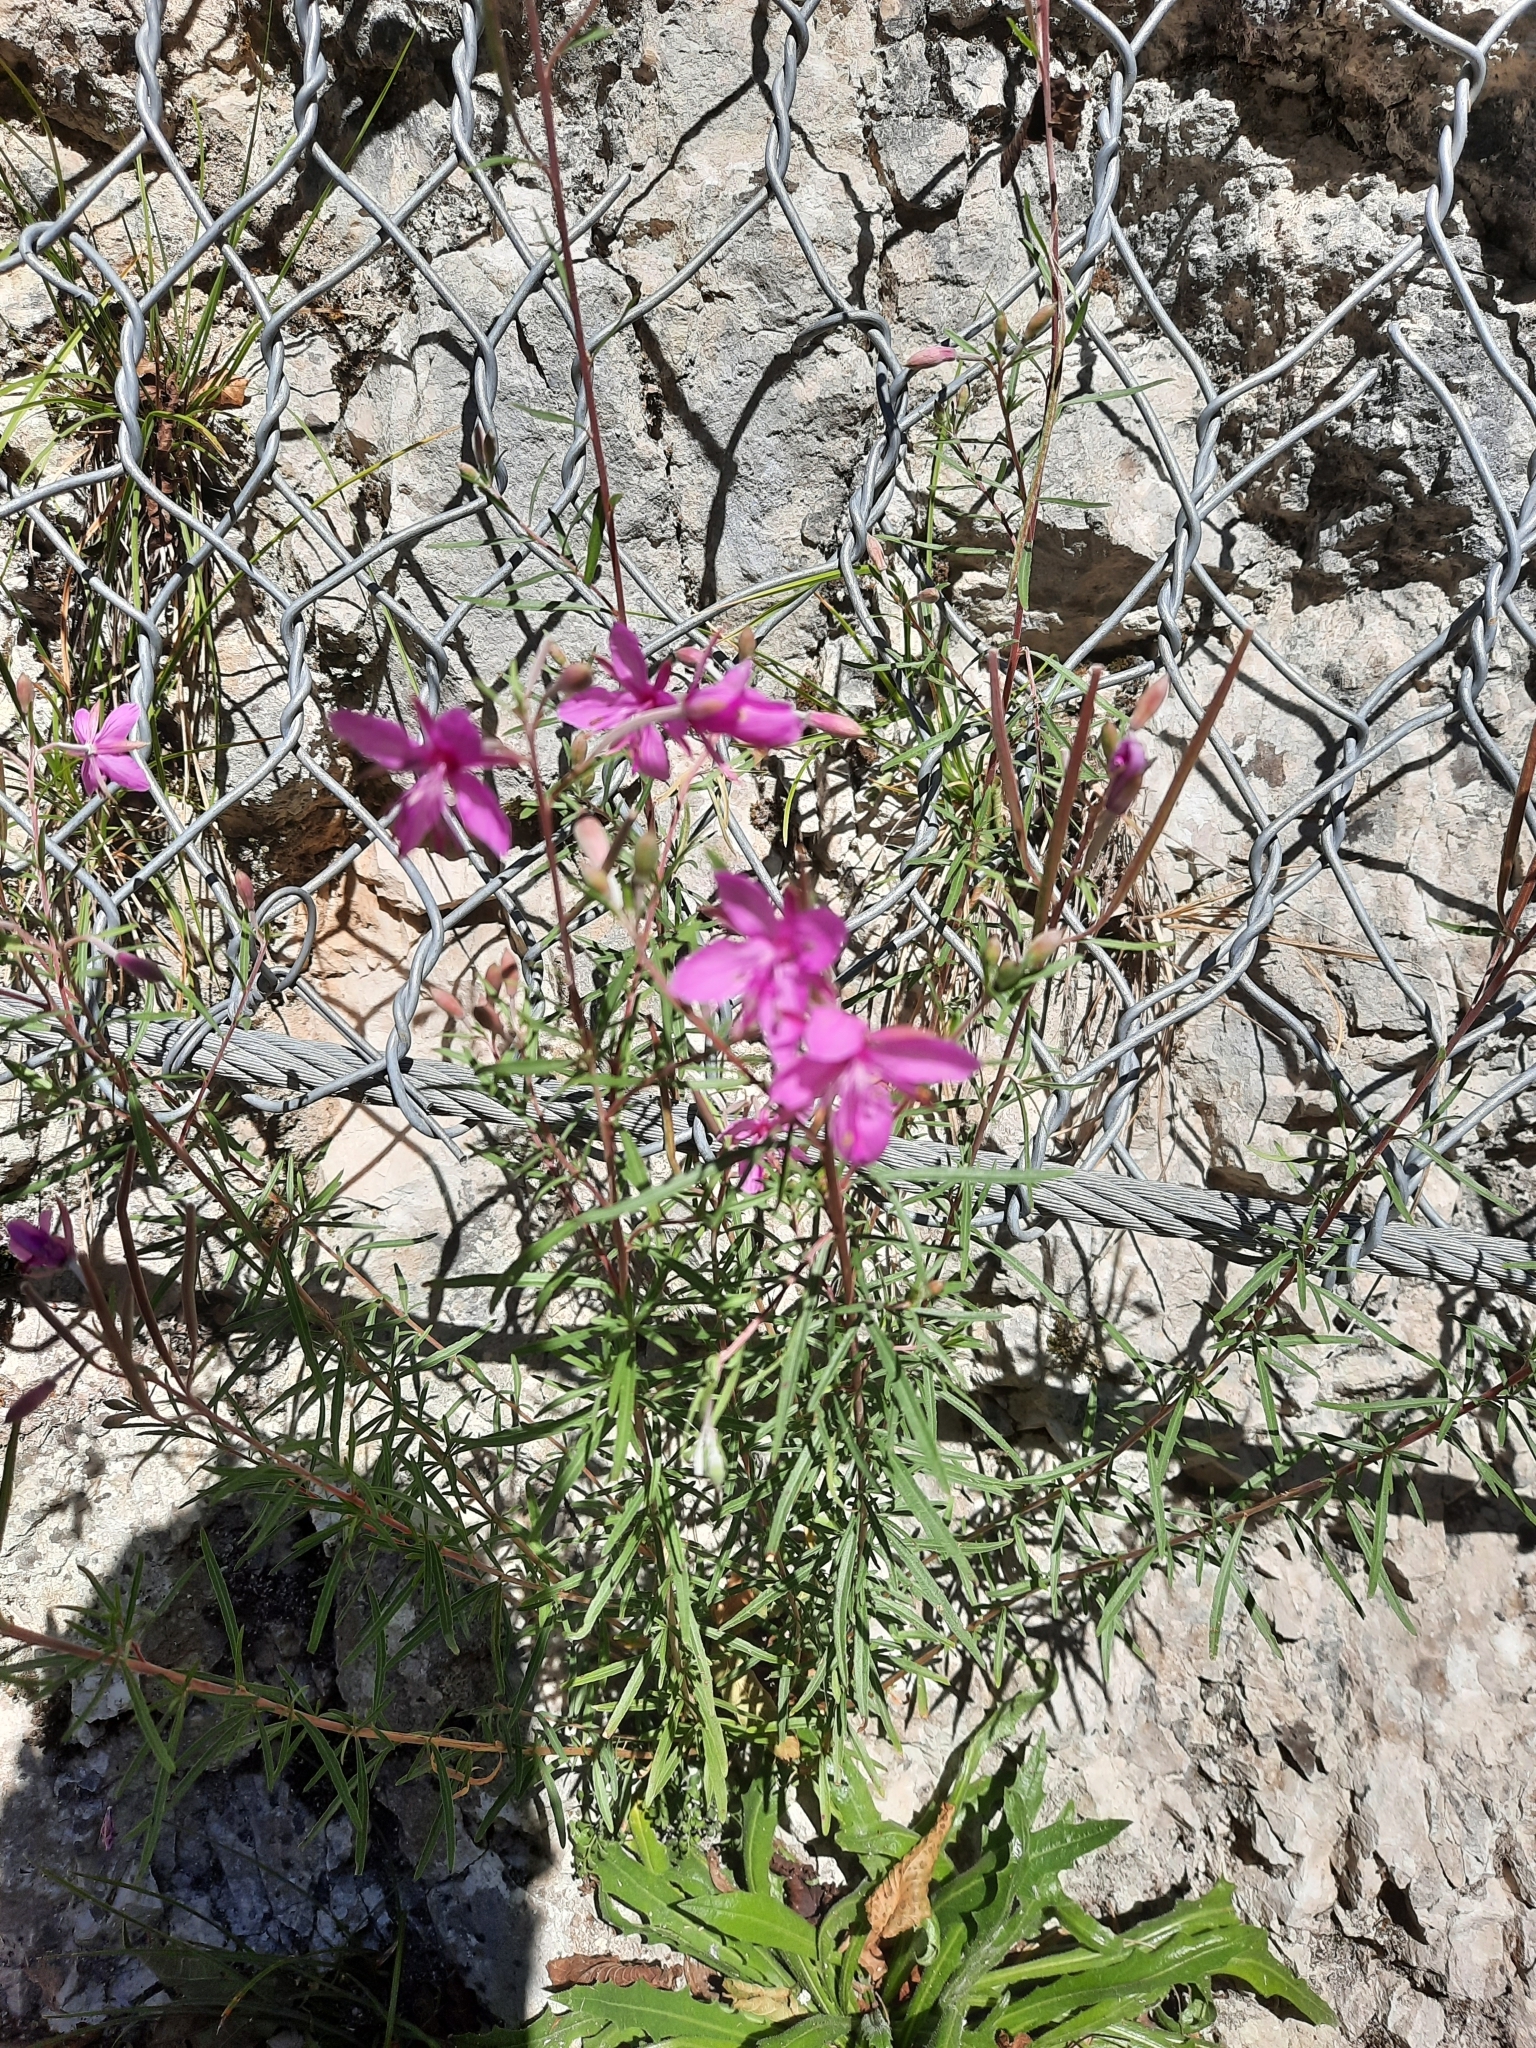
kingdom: Plantae
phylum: Tracheophyta
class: Magnoliopsida
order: Myrtales
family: Onagraceae
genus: Chamaenerion
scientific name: Chamaenerion dodonaei
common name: Rosemary-leaved willowherb
